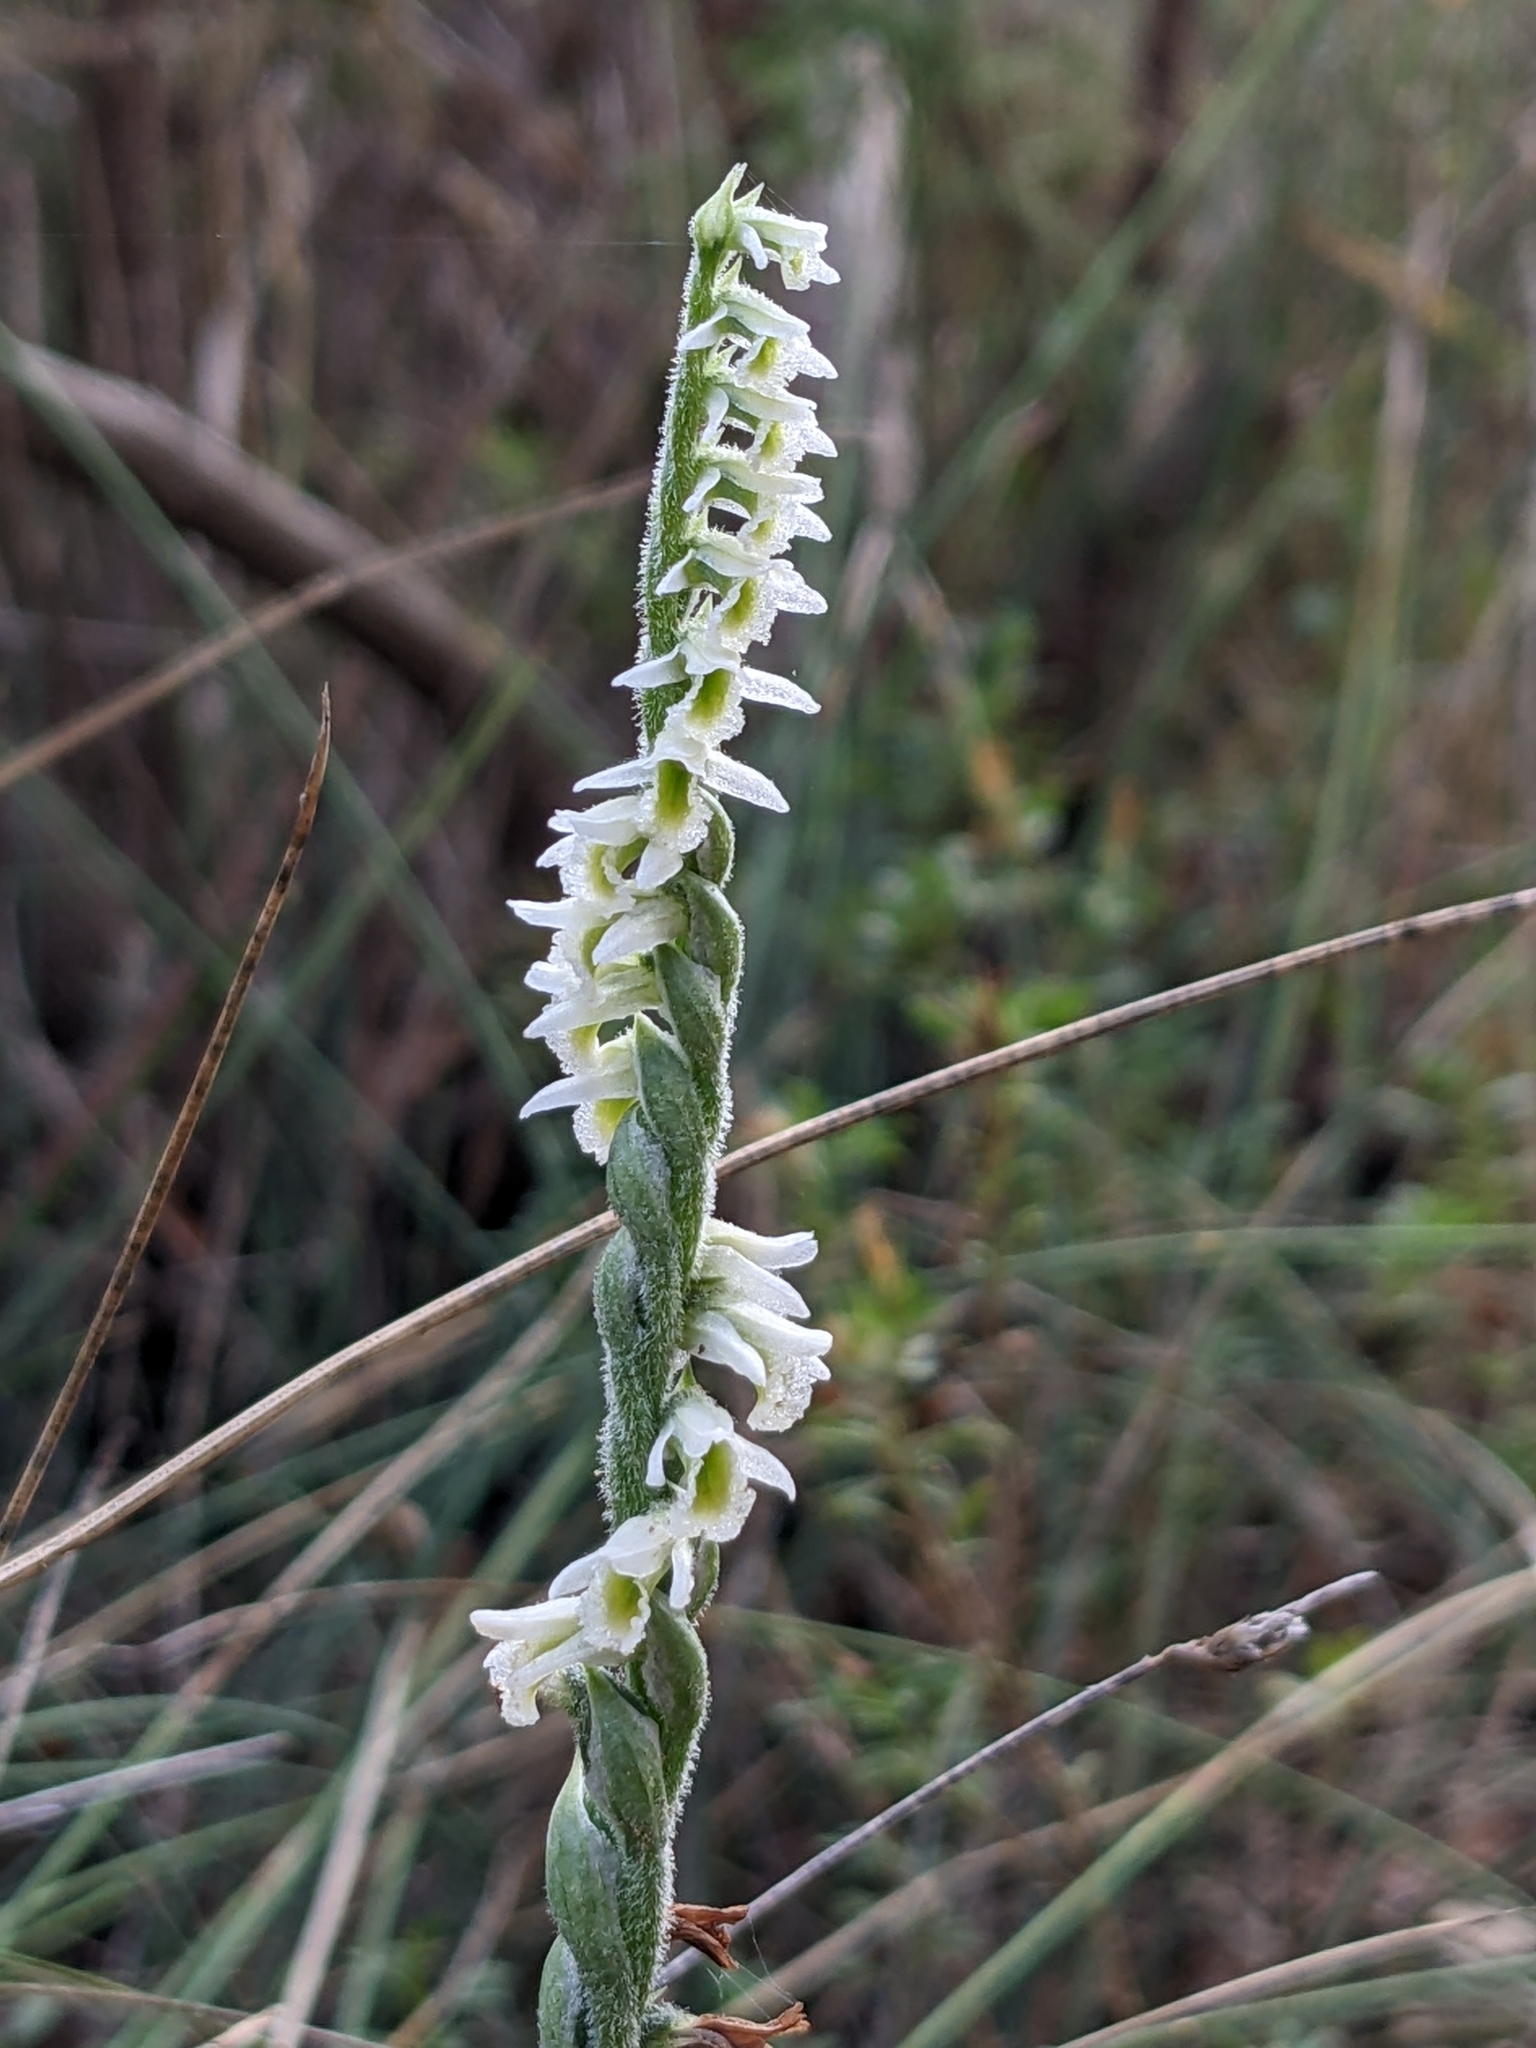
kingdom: Plantae
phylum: Tracheophyta
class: Liliopsida
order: Asparagales
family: Orchidaceae
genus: Spiranthes
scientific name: Spiranthes spiralis
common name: Autumn lady's-tresses
